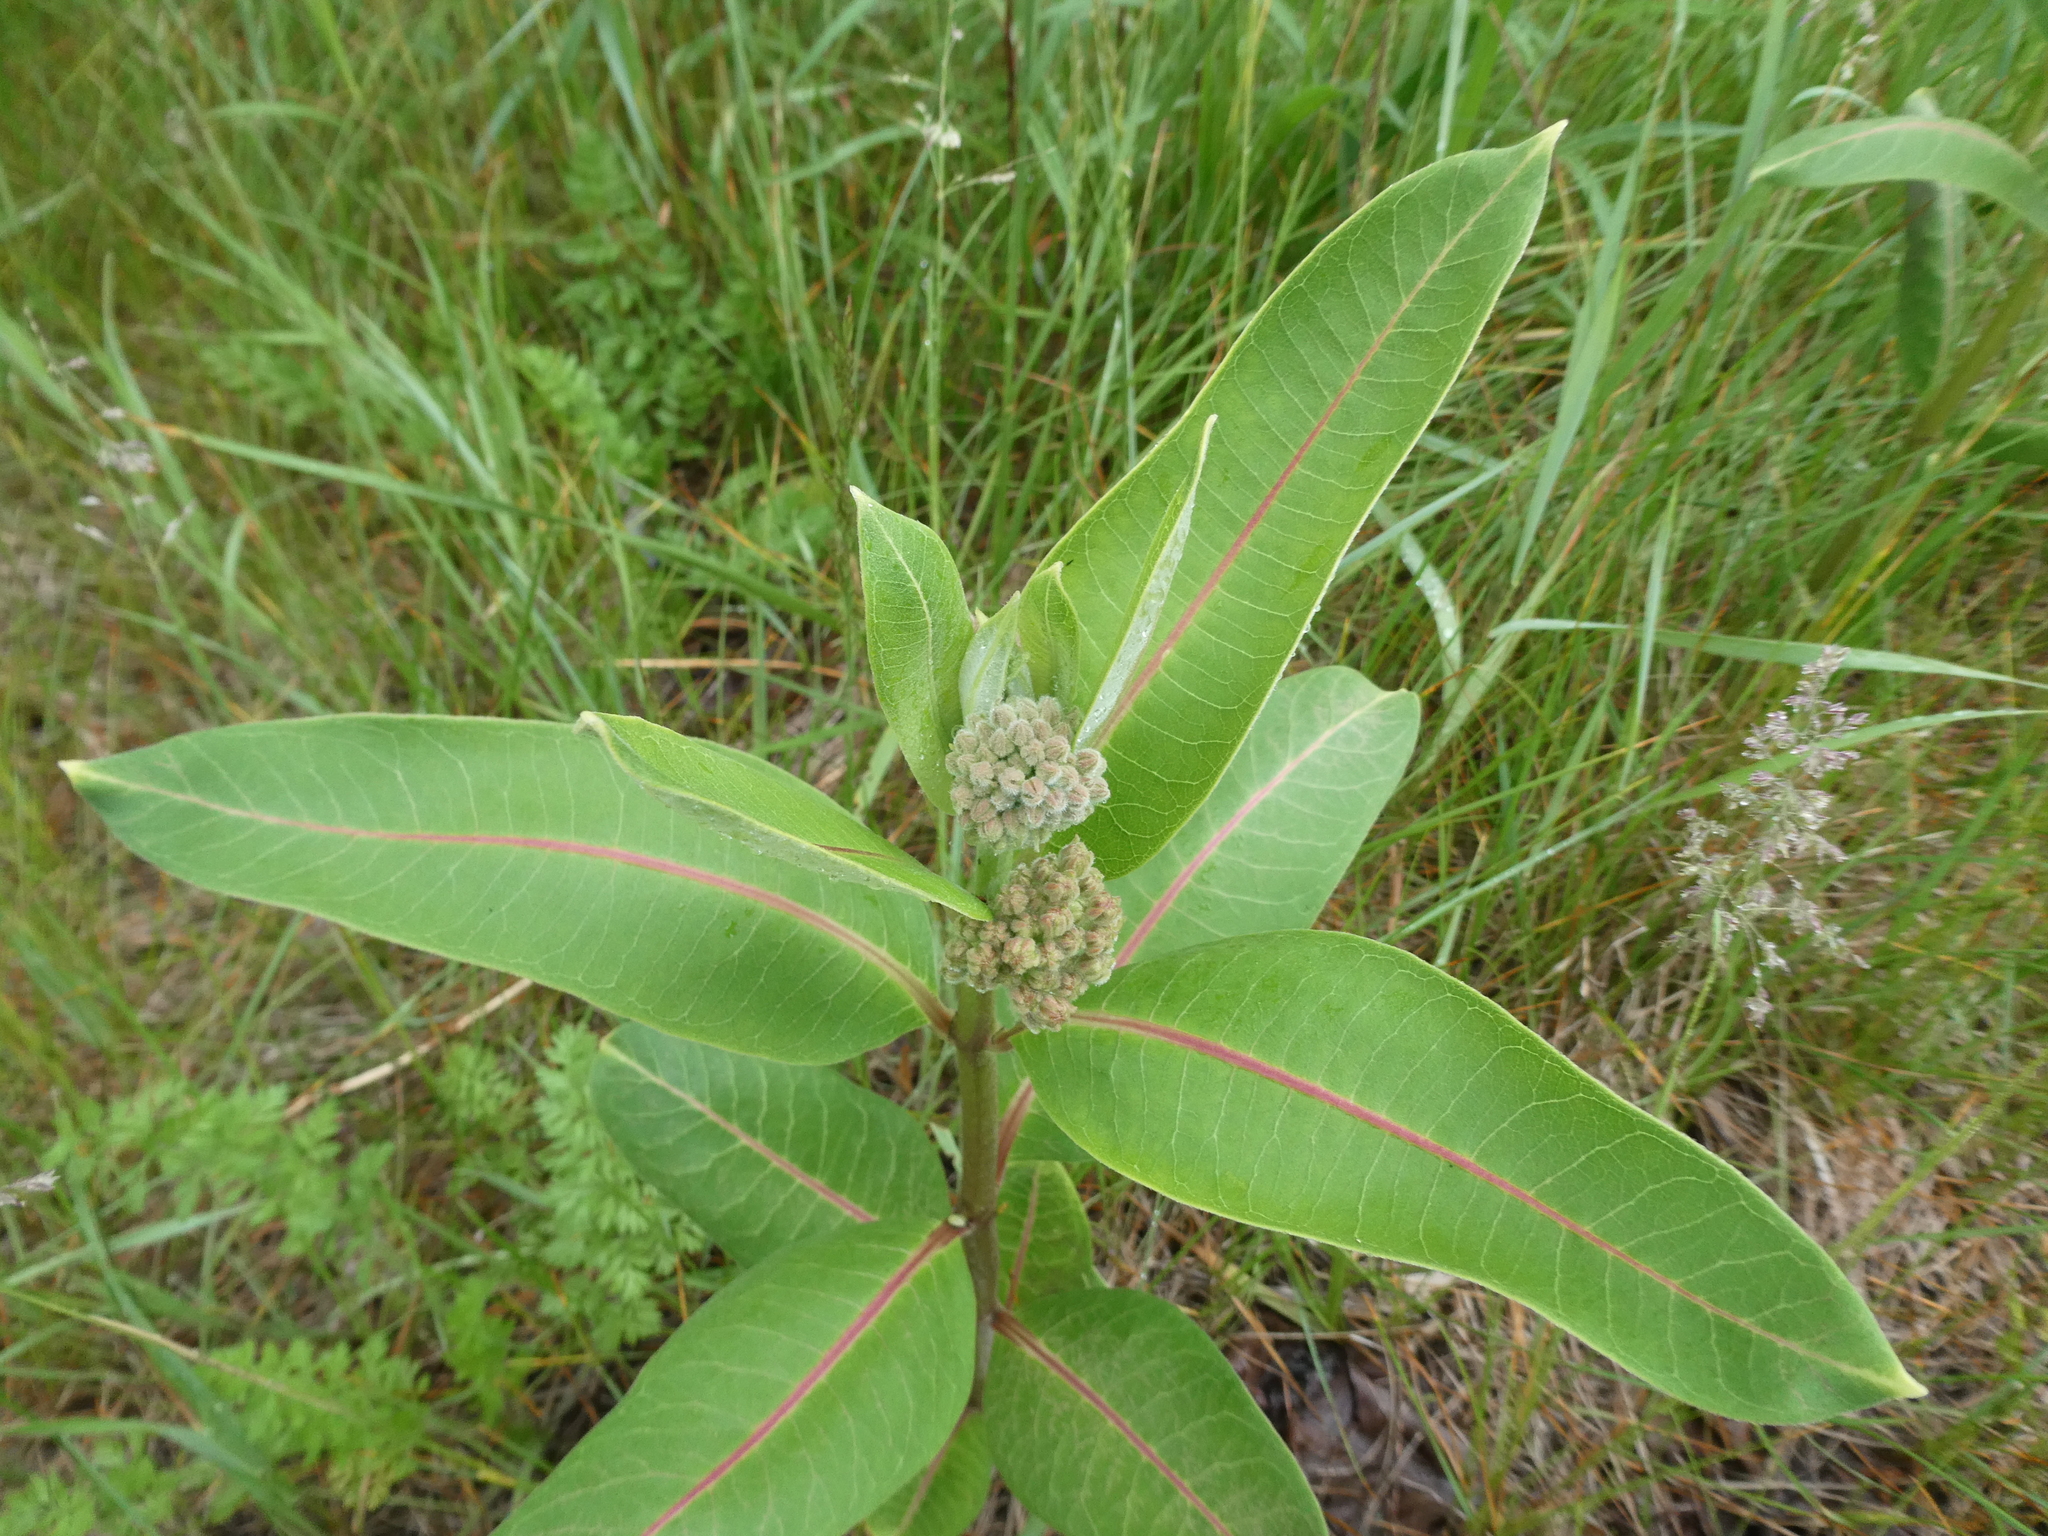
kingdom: Plantae
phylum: Tracheophyta
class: Magnoliopsida
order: Gentianales
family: Apocynaceae
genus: Asclepias
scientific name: Asclepias syriaca
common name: Common milkweed
